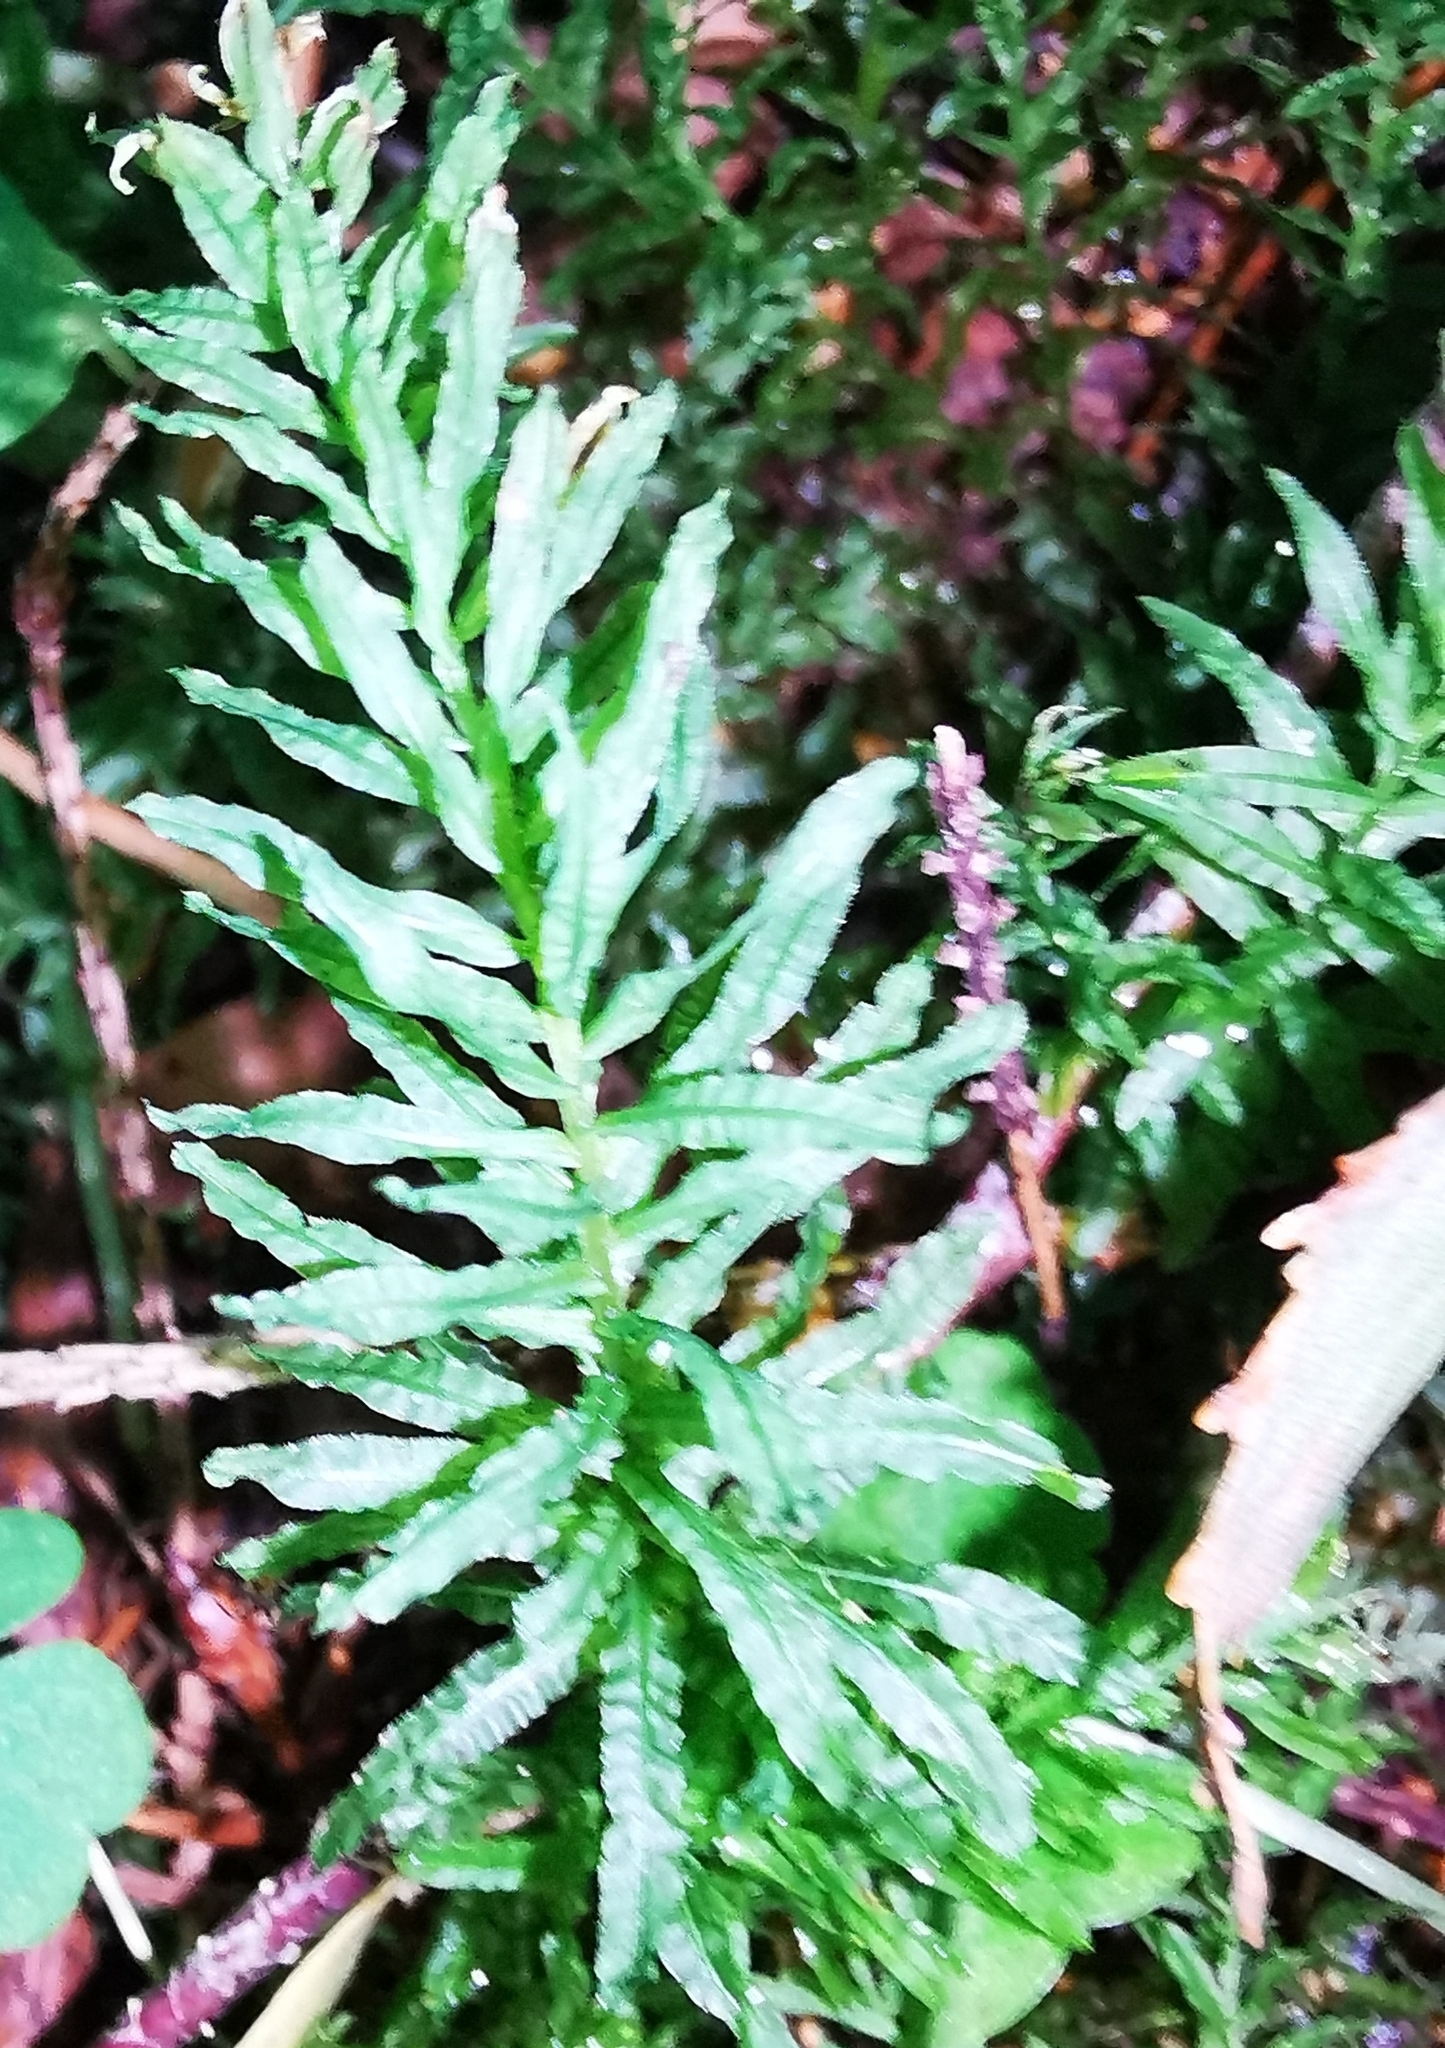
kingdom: Plantae
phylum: Bryophyta
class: Bryopsida
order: Bryales
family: Mniaceae
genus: Plagiomnium
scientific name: Plagiomnium undulatum
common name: Hart's-tongue thyme-moss
